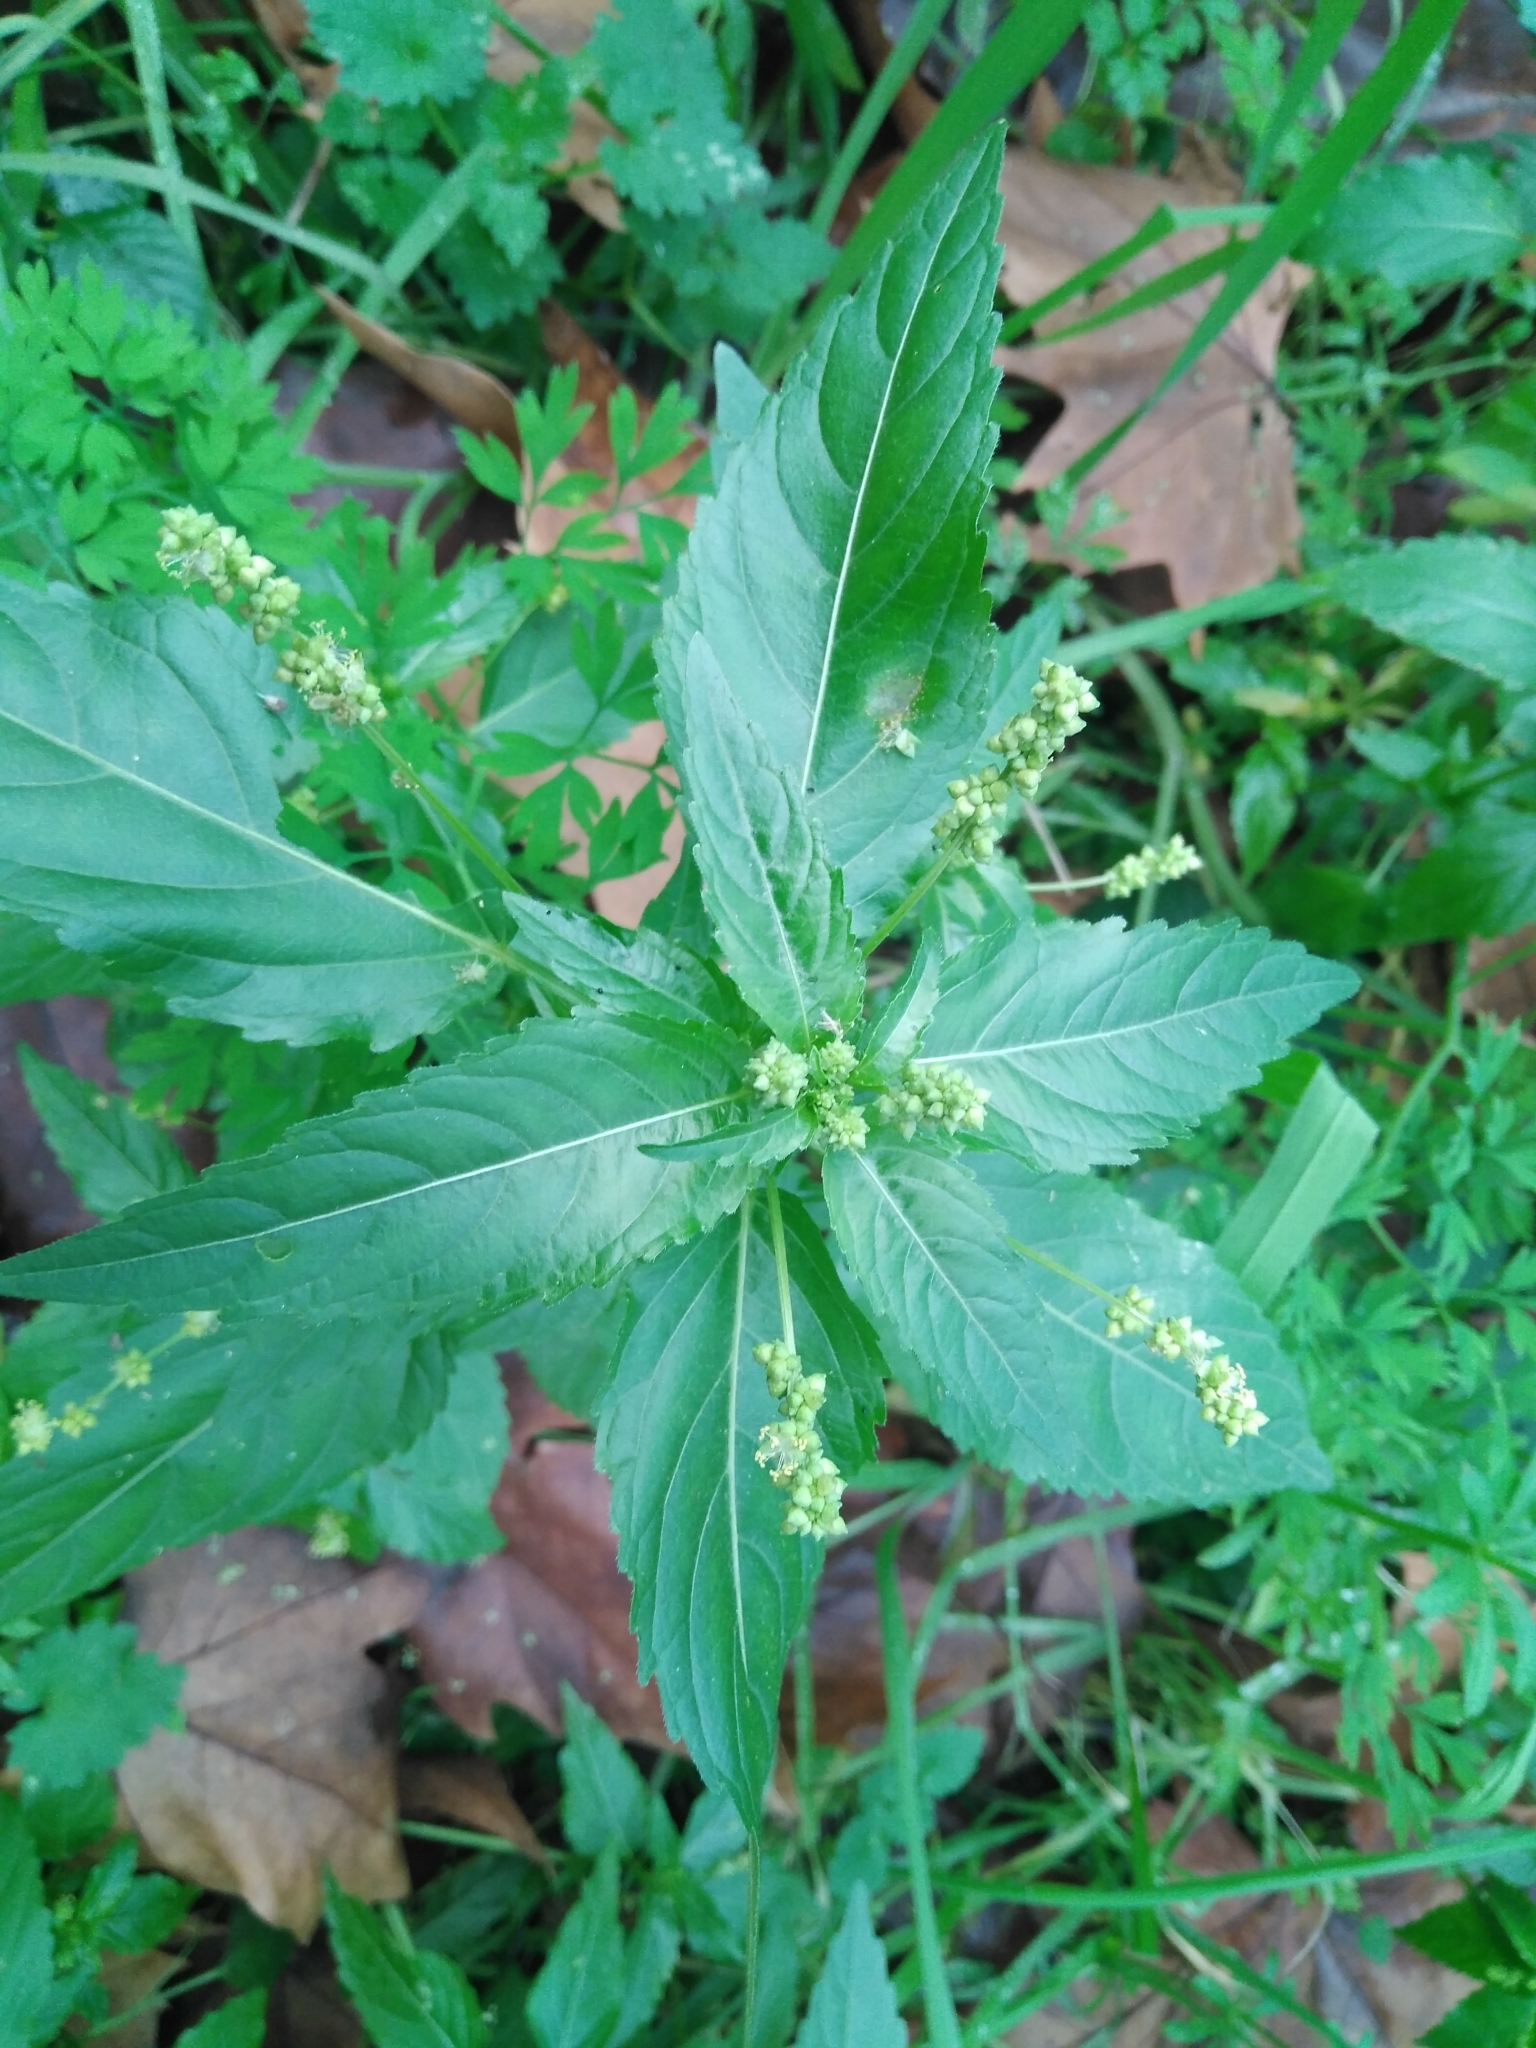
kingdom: Plantae
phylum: Tracheophyta
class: Magnoliopsida
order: Malpighiales
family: Euphorbiaceae
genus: Mercurialis
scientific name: Mercurialis annua
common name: Annual mercury
